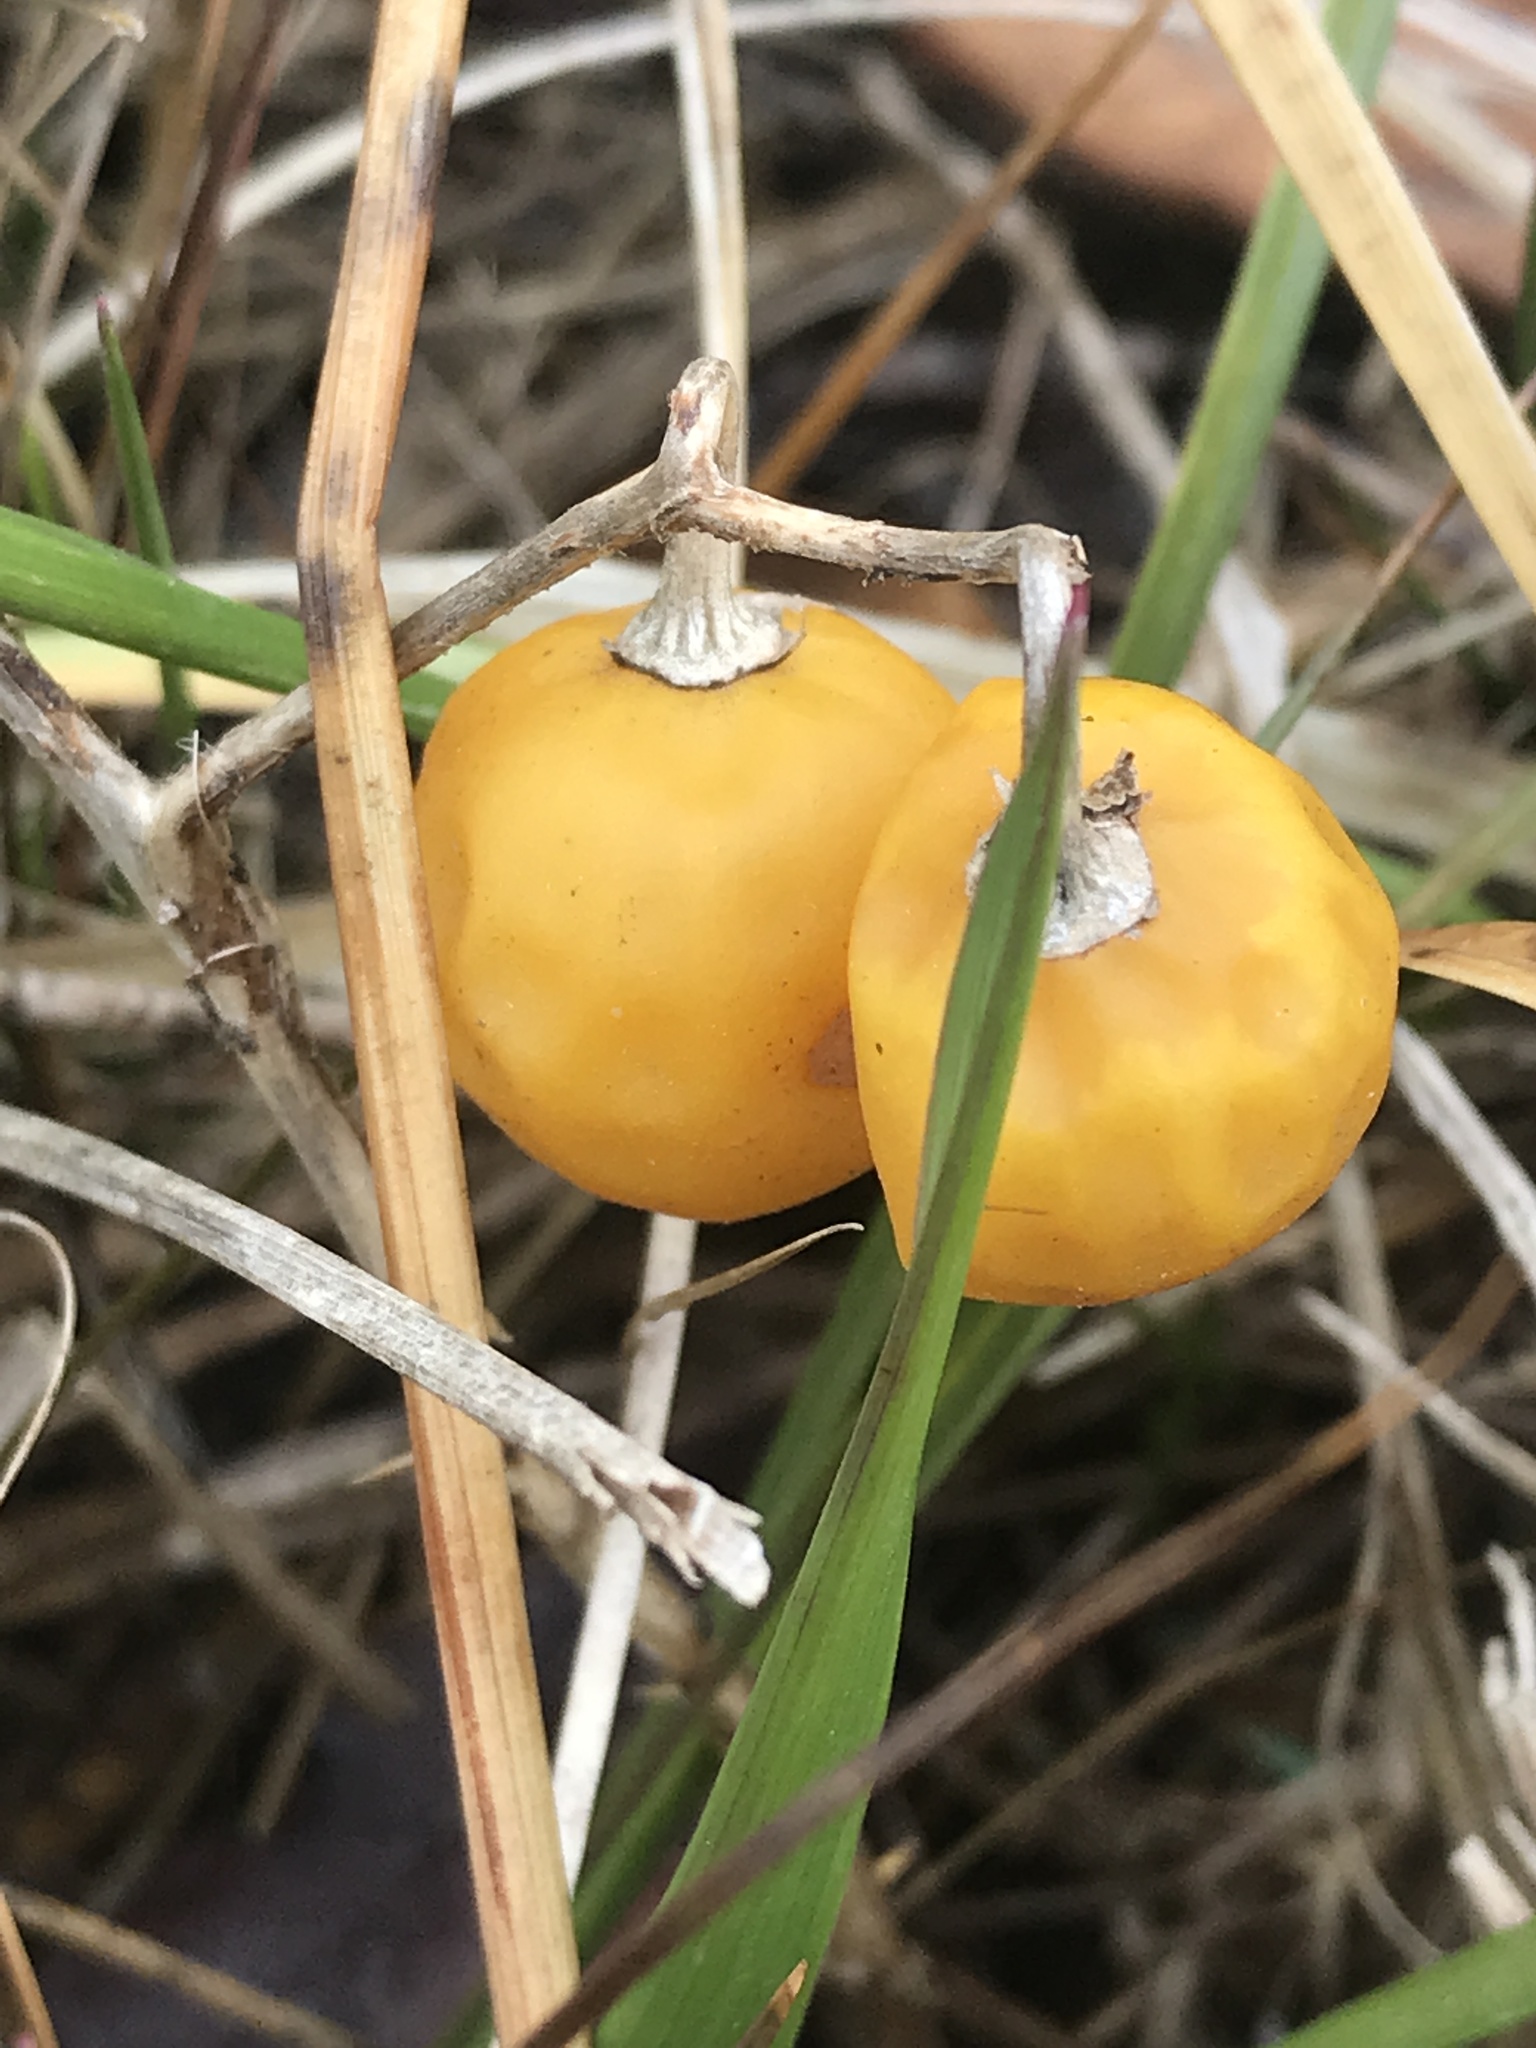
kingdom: Plantae
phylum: Tracheophyta
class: Magnoliopsida
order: Solanales
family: Solanaceae
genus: Solanum
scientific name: Solanum carolinense
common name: Horse-nettle
